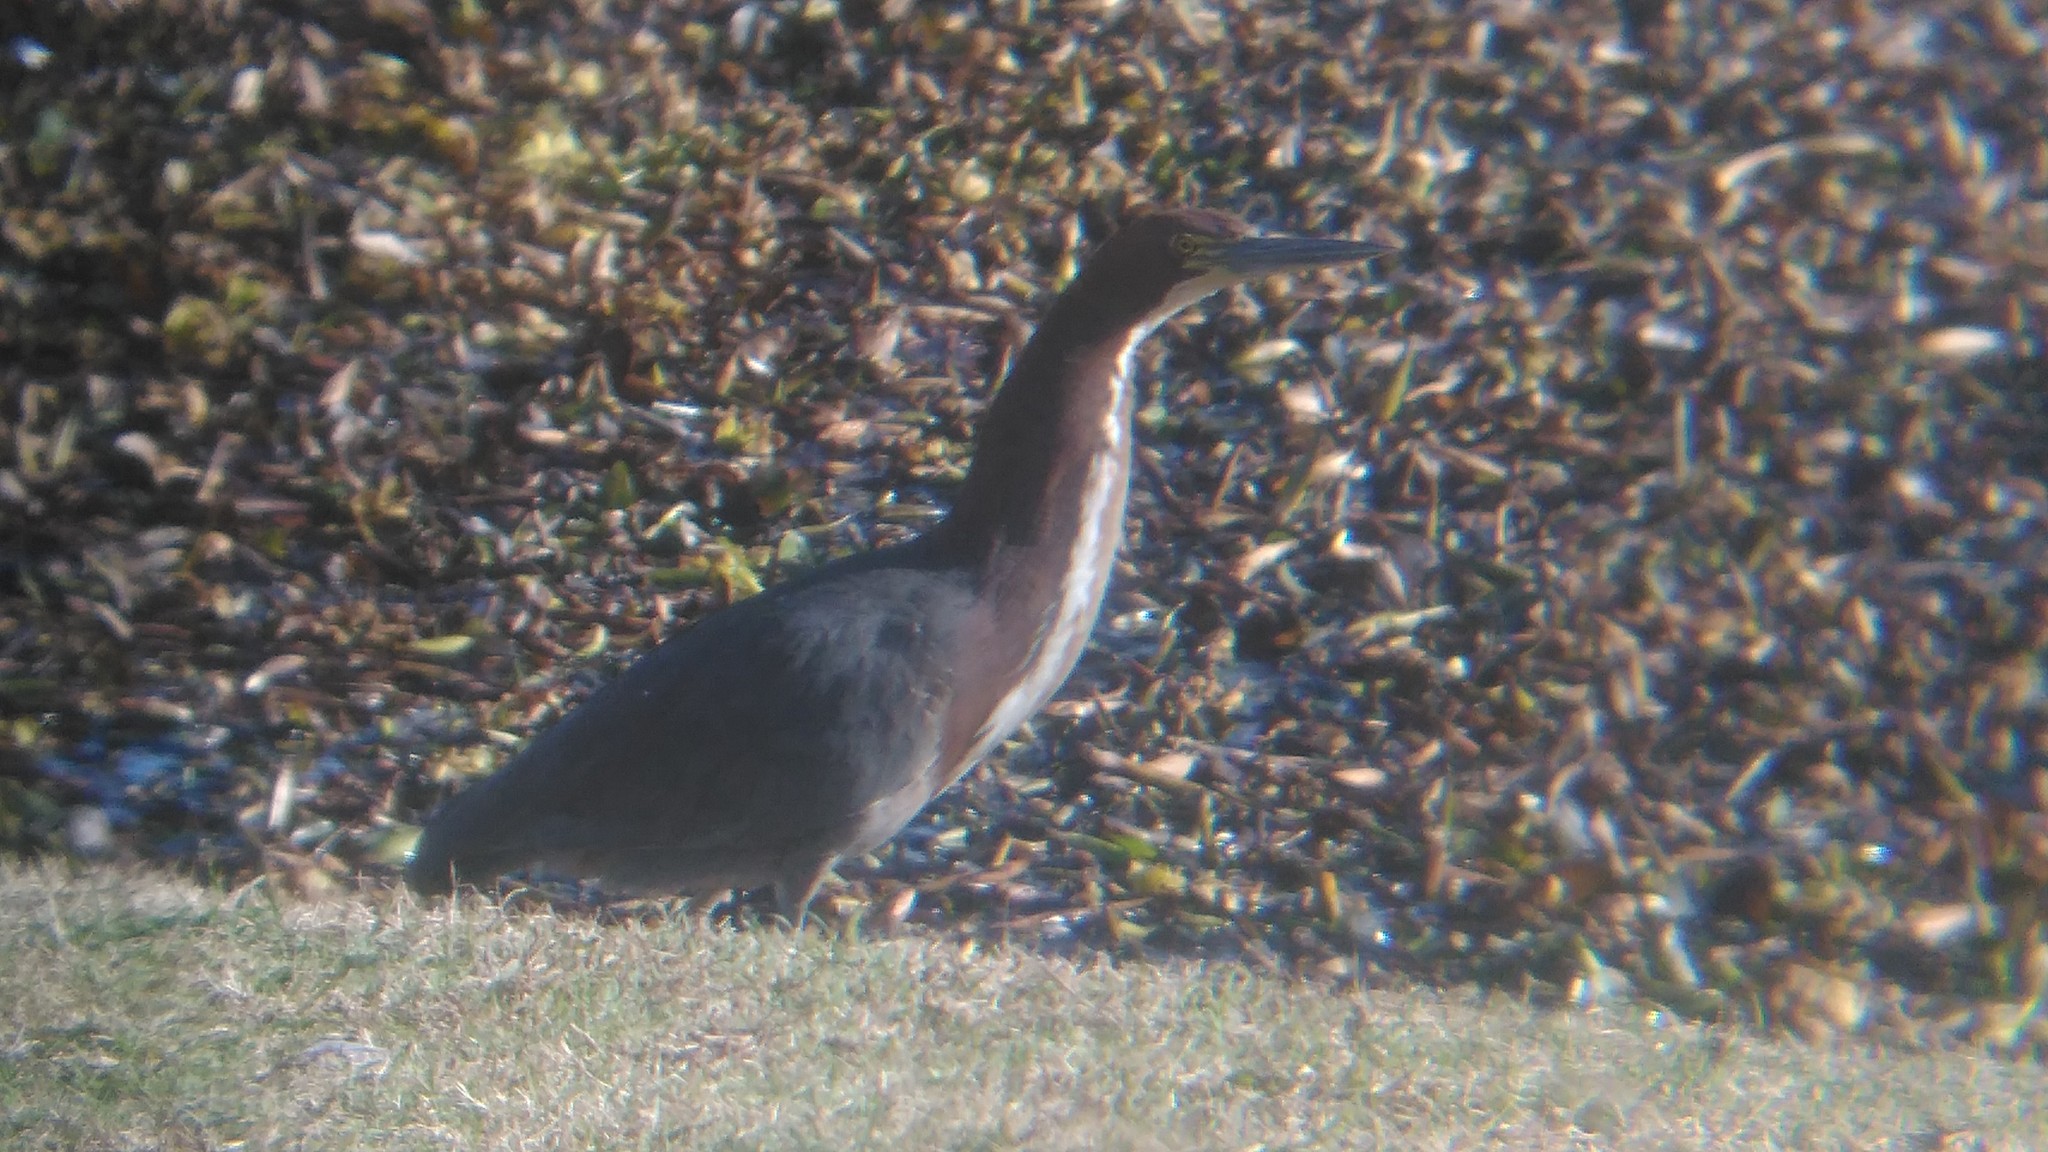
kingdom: Animalia
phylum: Chordata
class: Aves
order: Pelecaniformes
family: Ardeidae
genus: Tigrisoma
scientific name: Tigrisoma lineatum
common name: Rufescent tiger-heron
